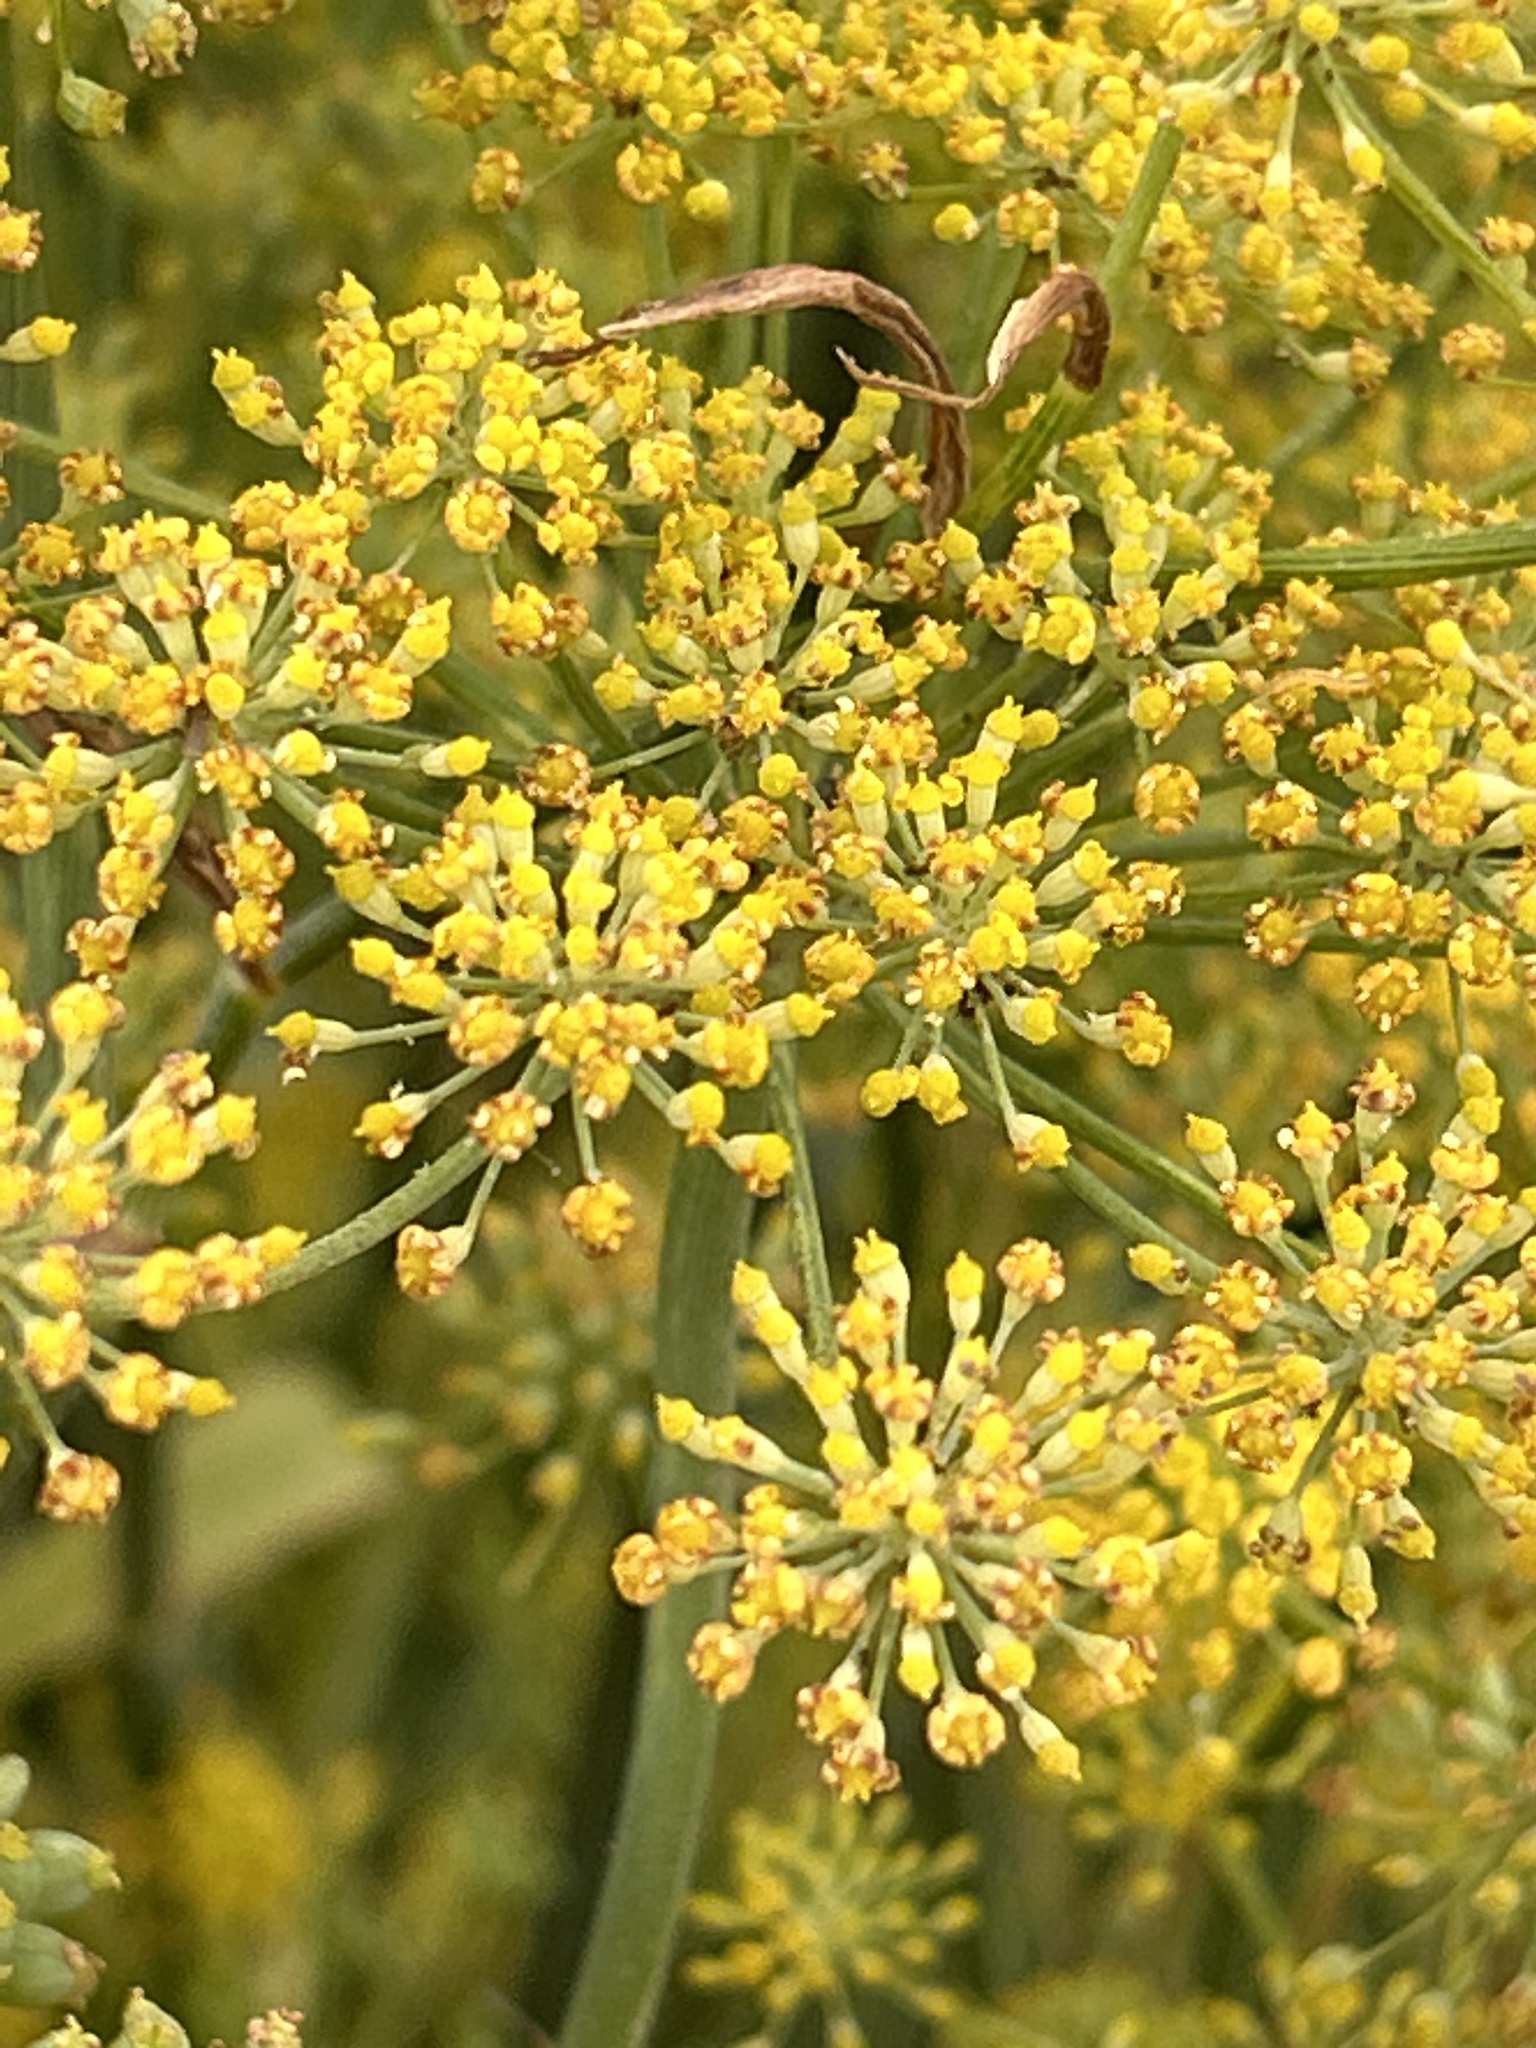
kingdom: Plantae
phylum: Tracheophyta
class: Magnoliopsida
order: Apiales
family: Apiaceae
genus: Foeniculum
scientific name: Foeniculum vulgare
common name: Fennel
